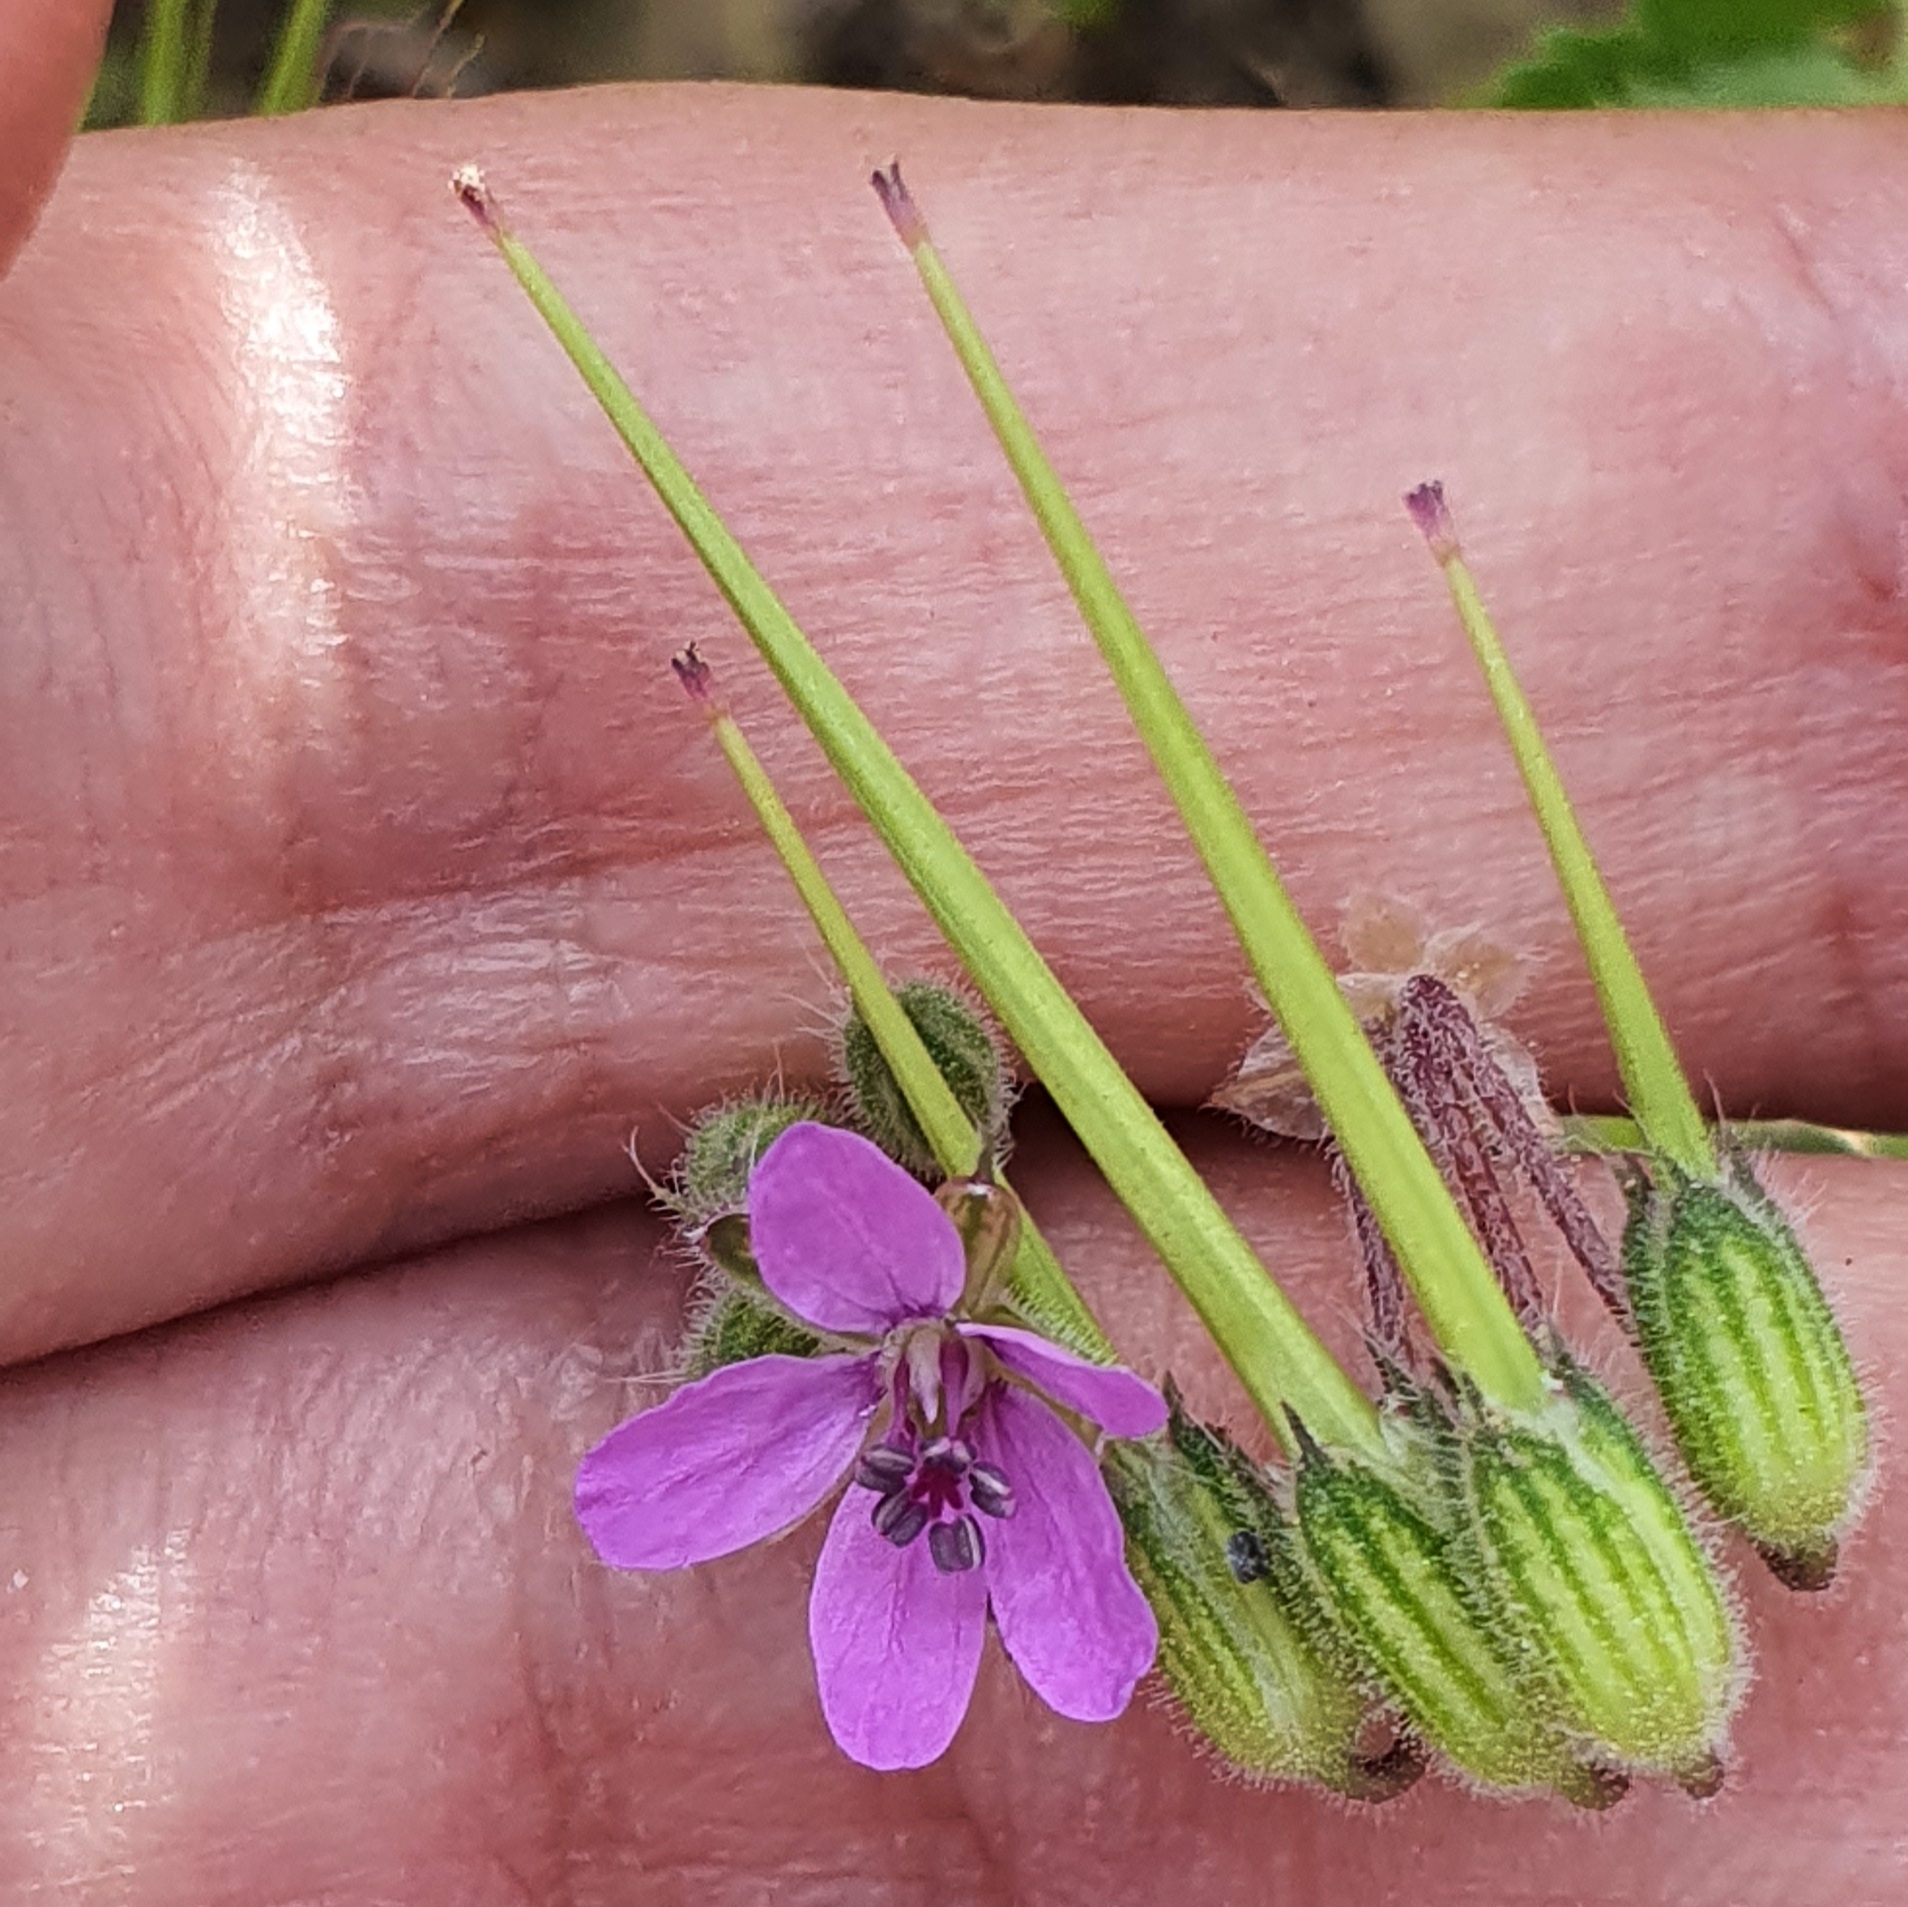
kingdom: Plantae
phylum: Tracheophyta
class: Magnoliopsida
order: Geraniales
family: Geraniaceae
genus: Erodium
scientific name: Erodium malacoides
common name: Soft stork's-bill
